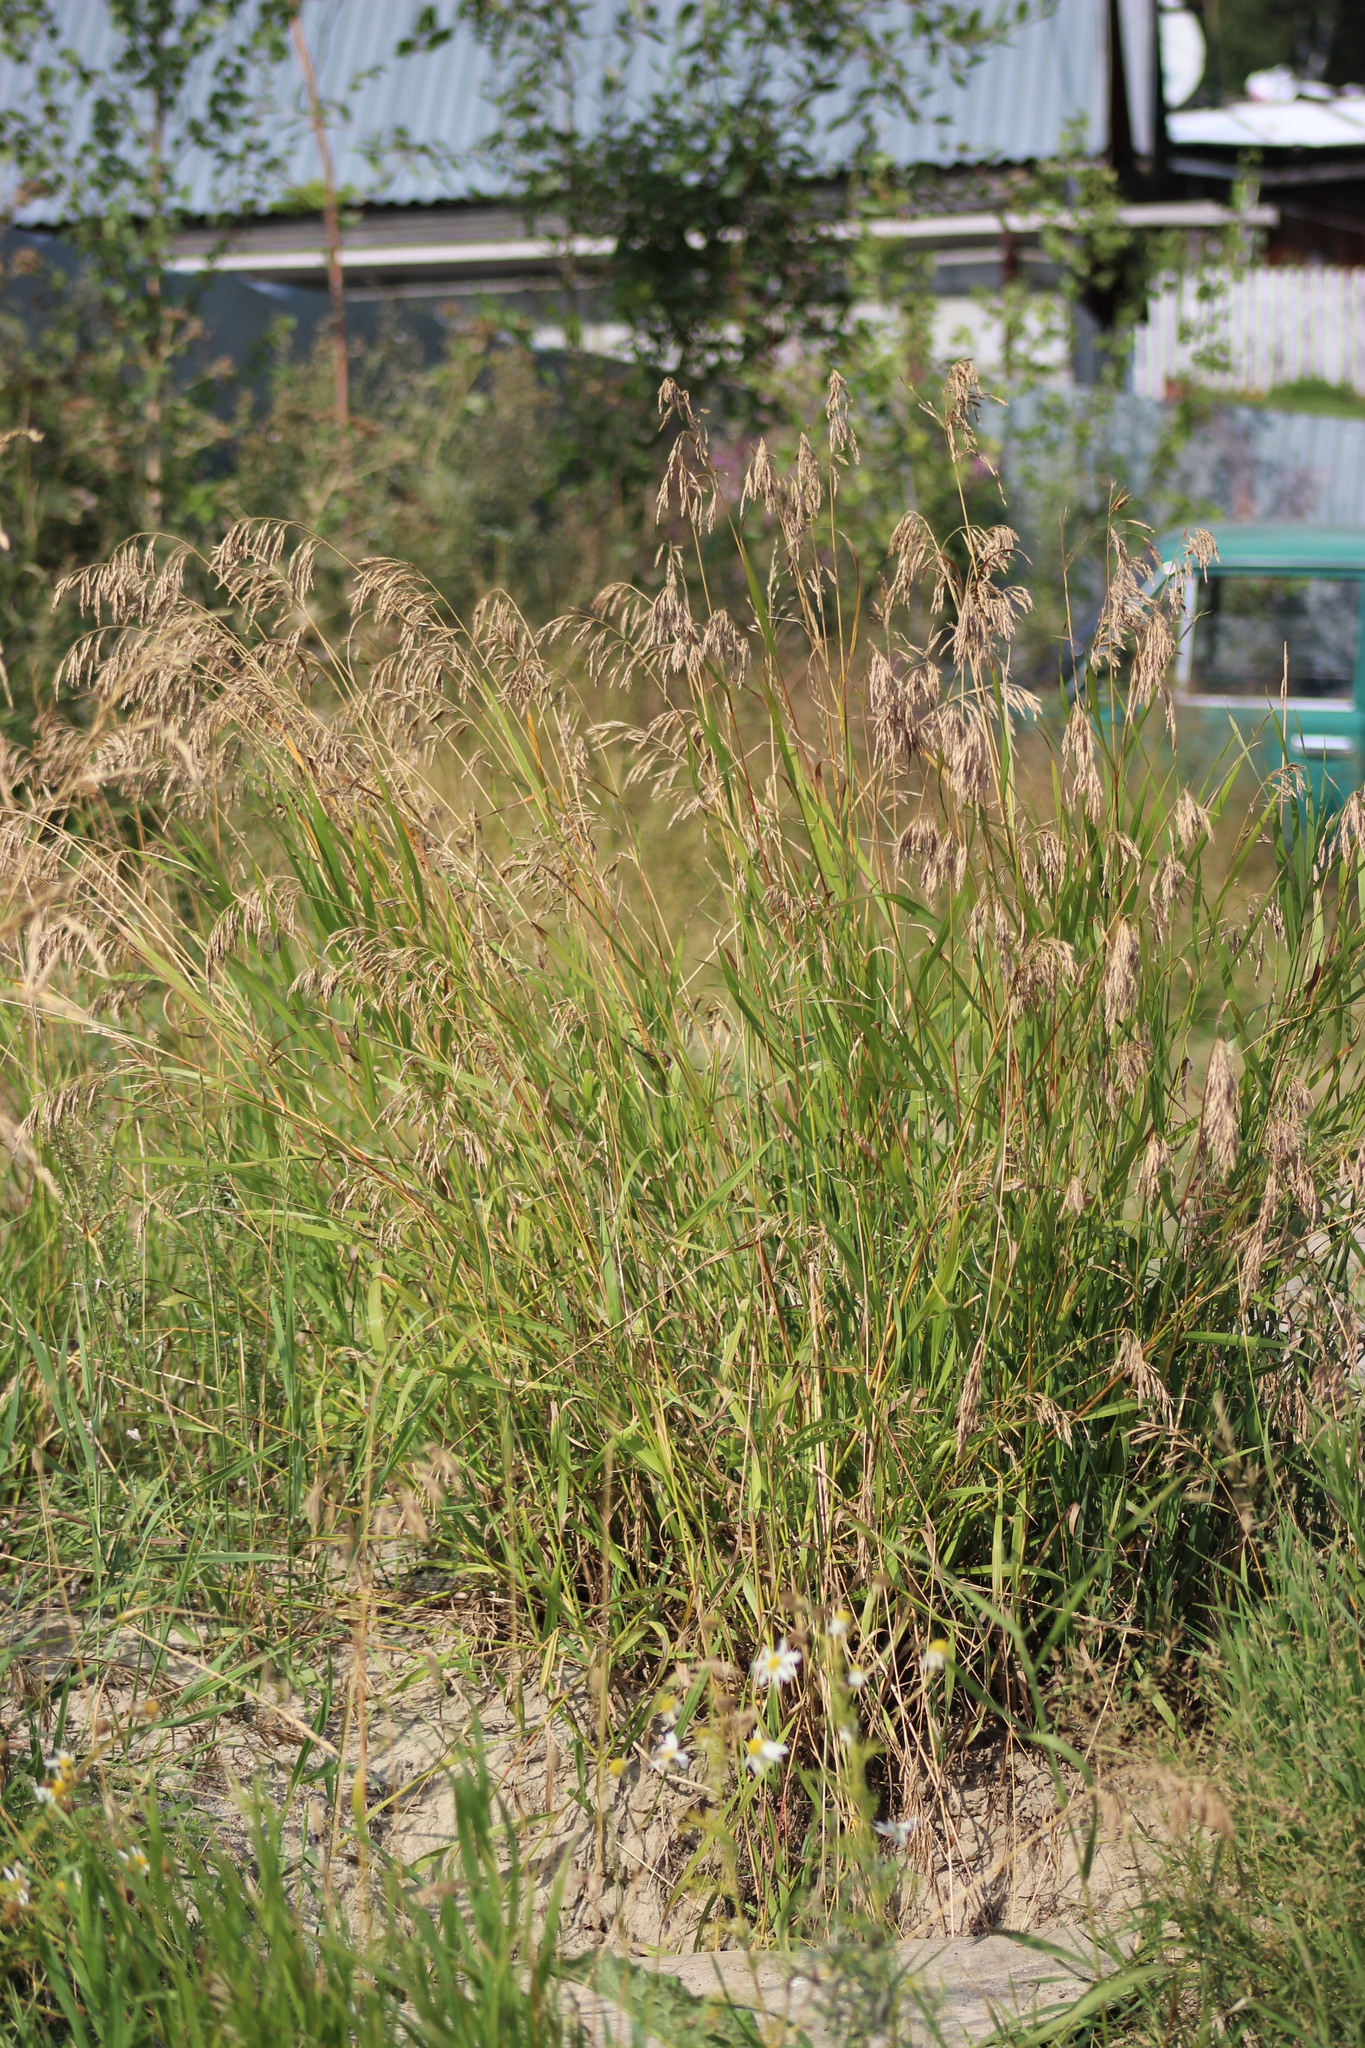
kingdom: Plantae
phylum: Tracheophyta
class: Liliopsida
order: Poales
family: Poaceae
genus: Bromus
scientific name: Bromus inermis
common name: Smooth brome
